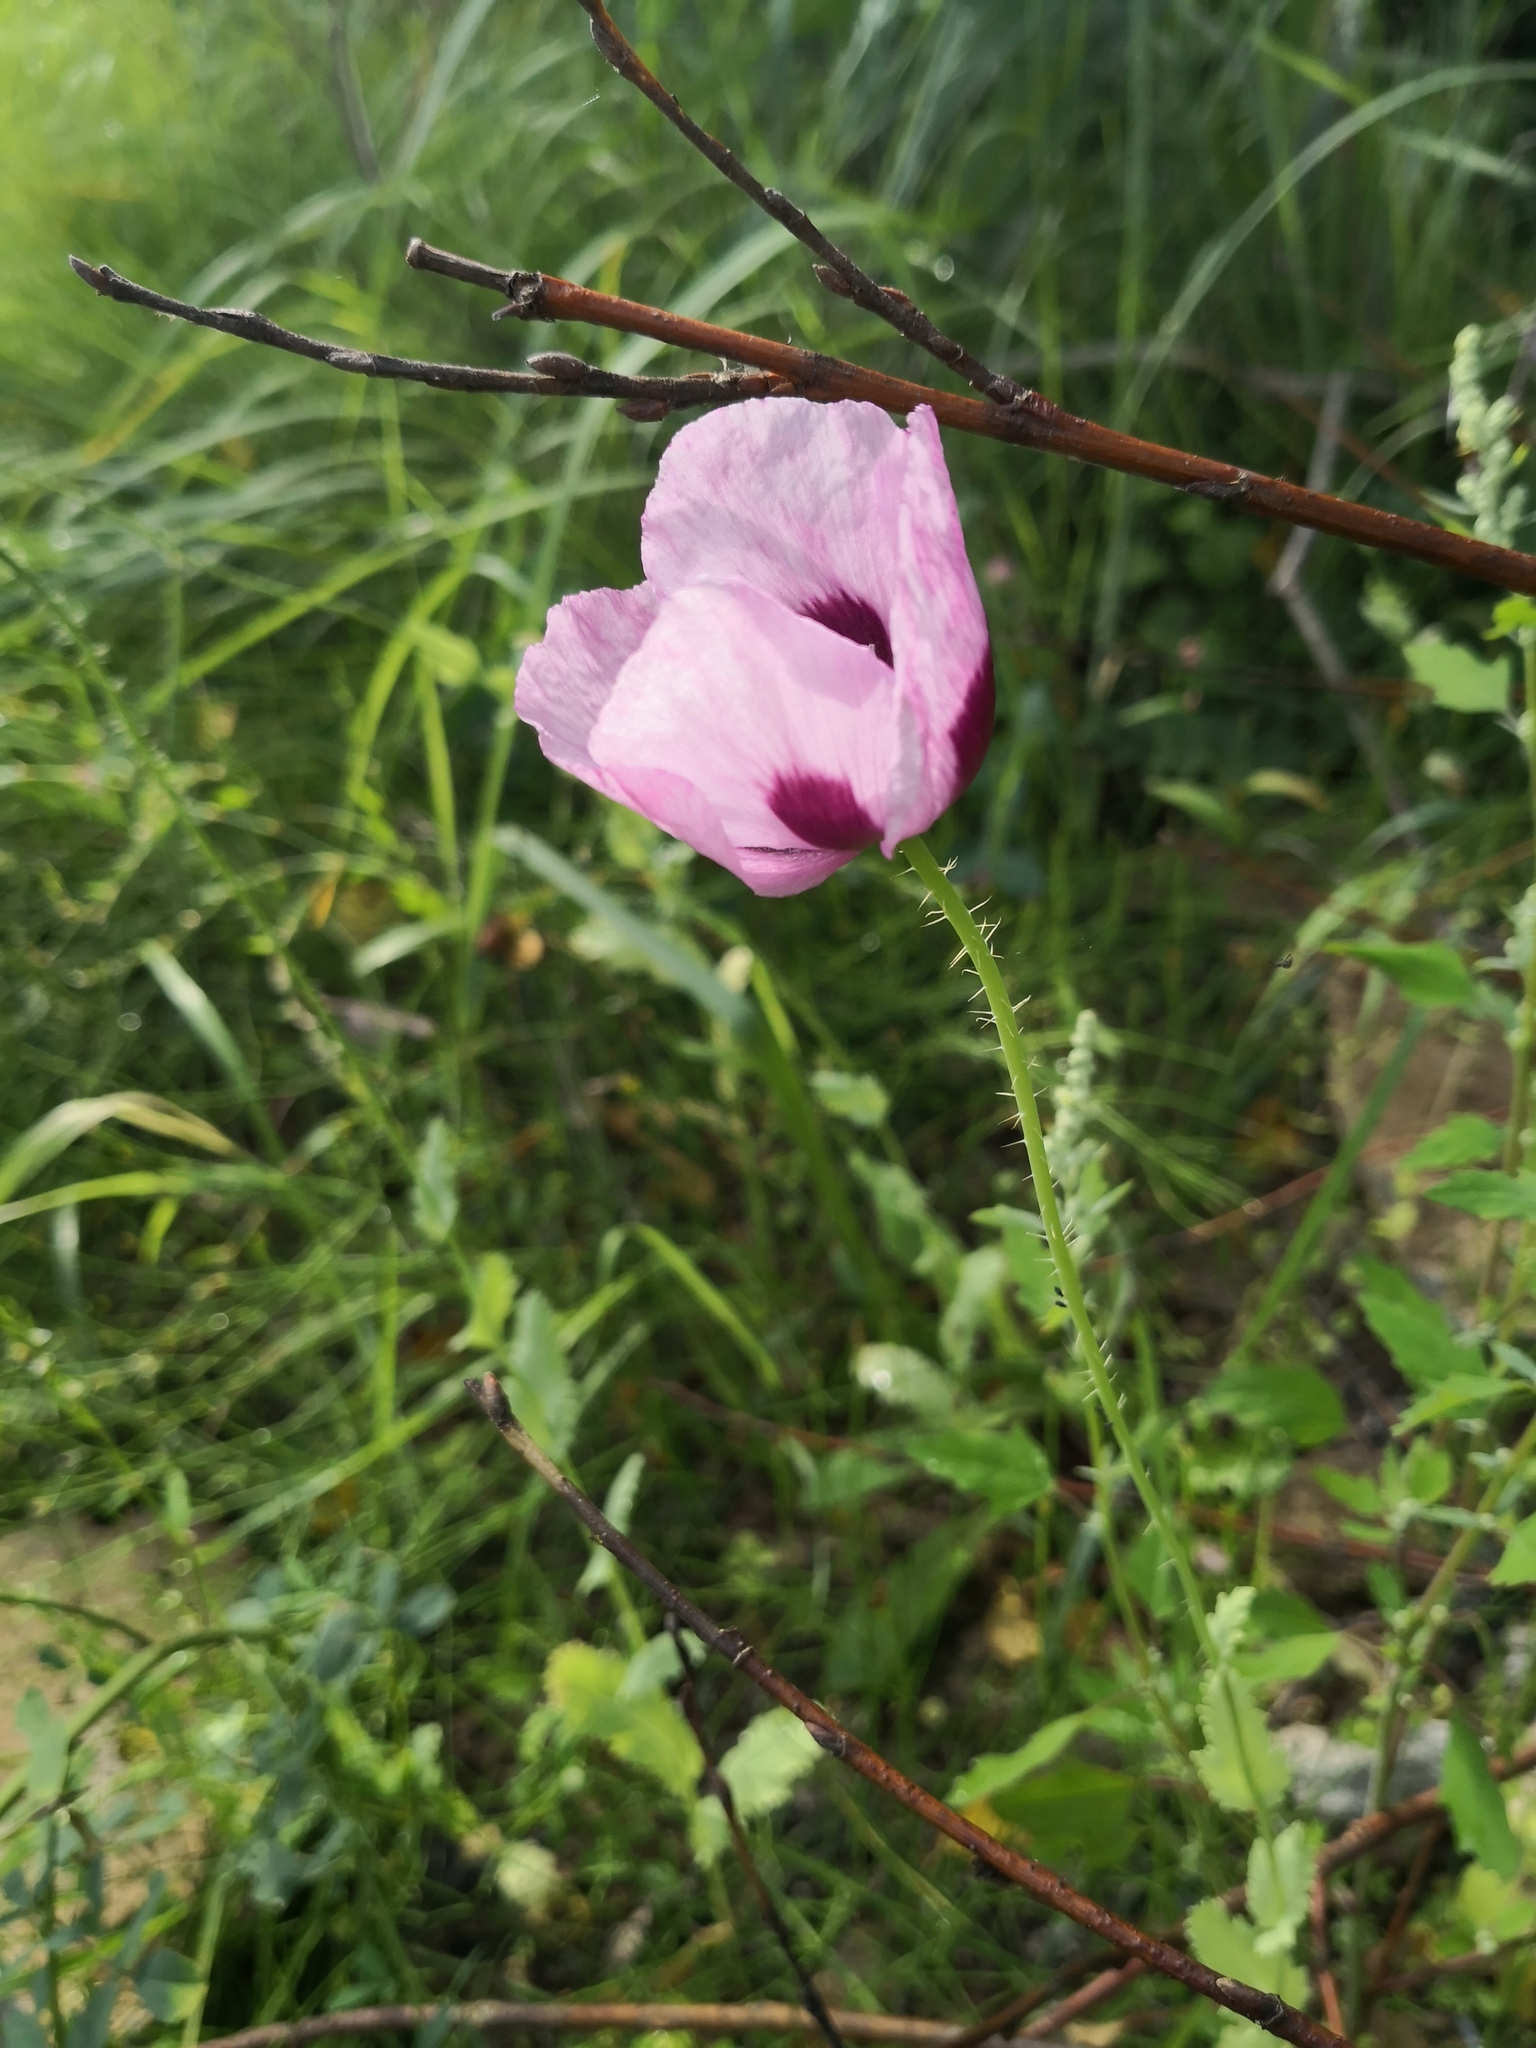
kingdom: Plantae
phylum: Tracheophyta
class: Magnoliopsida
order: Ranunculales
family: Papaveraceae
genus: Papaver
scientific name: Papaver somniferum
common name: Opium poppy
